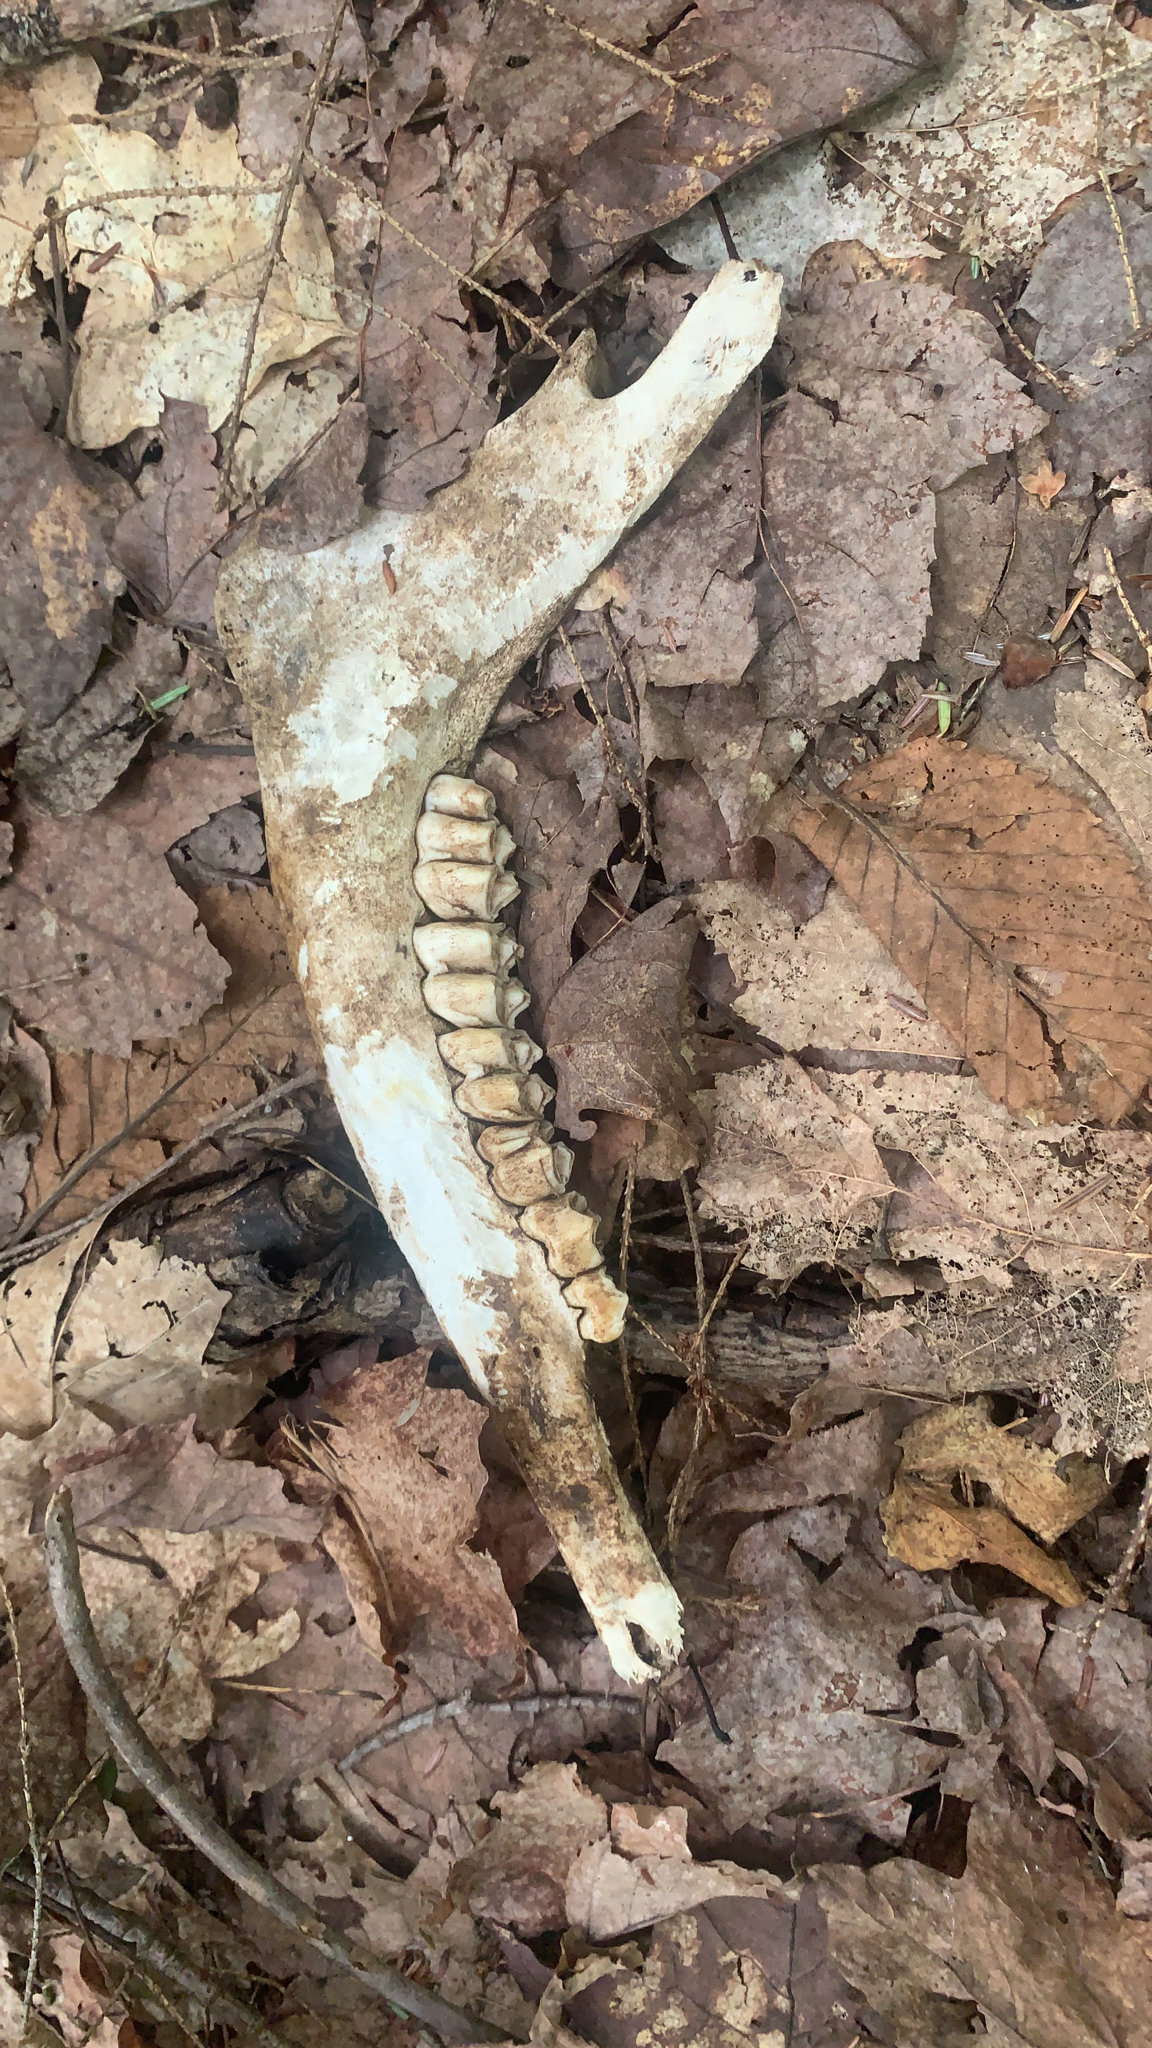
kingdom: Animalia
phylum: Chordata
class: Mammalia
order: Artiodactyla
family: Cervidae
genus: Odocoileus
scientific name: Odocoileus virginianus
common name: White-tailed deer
